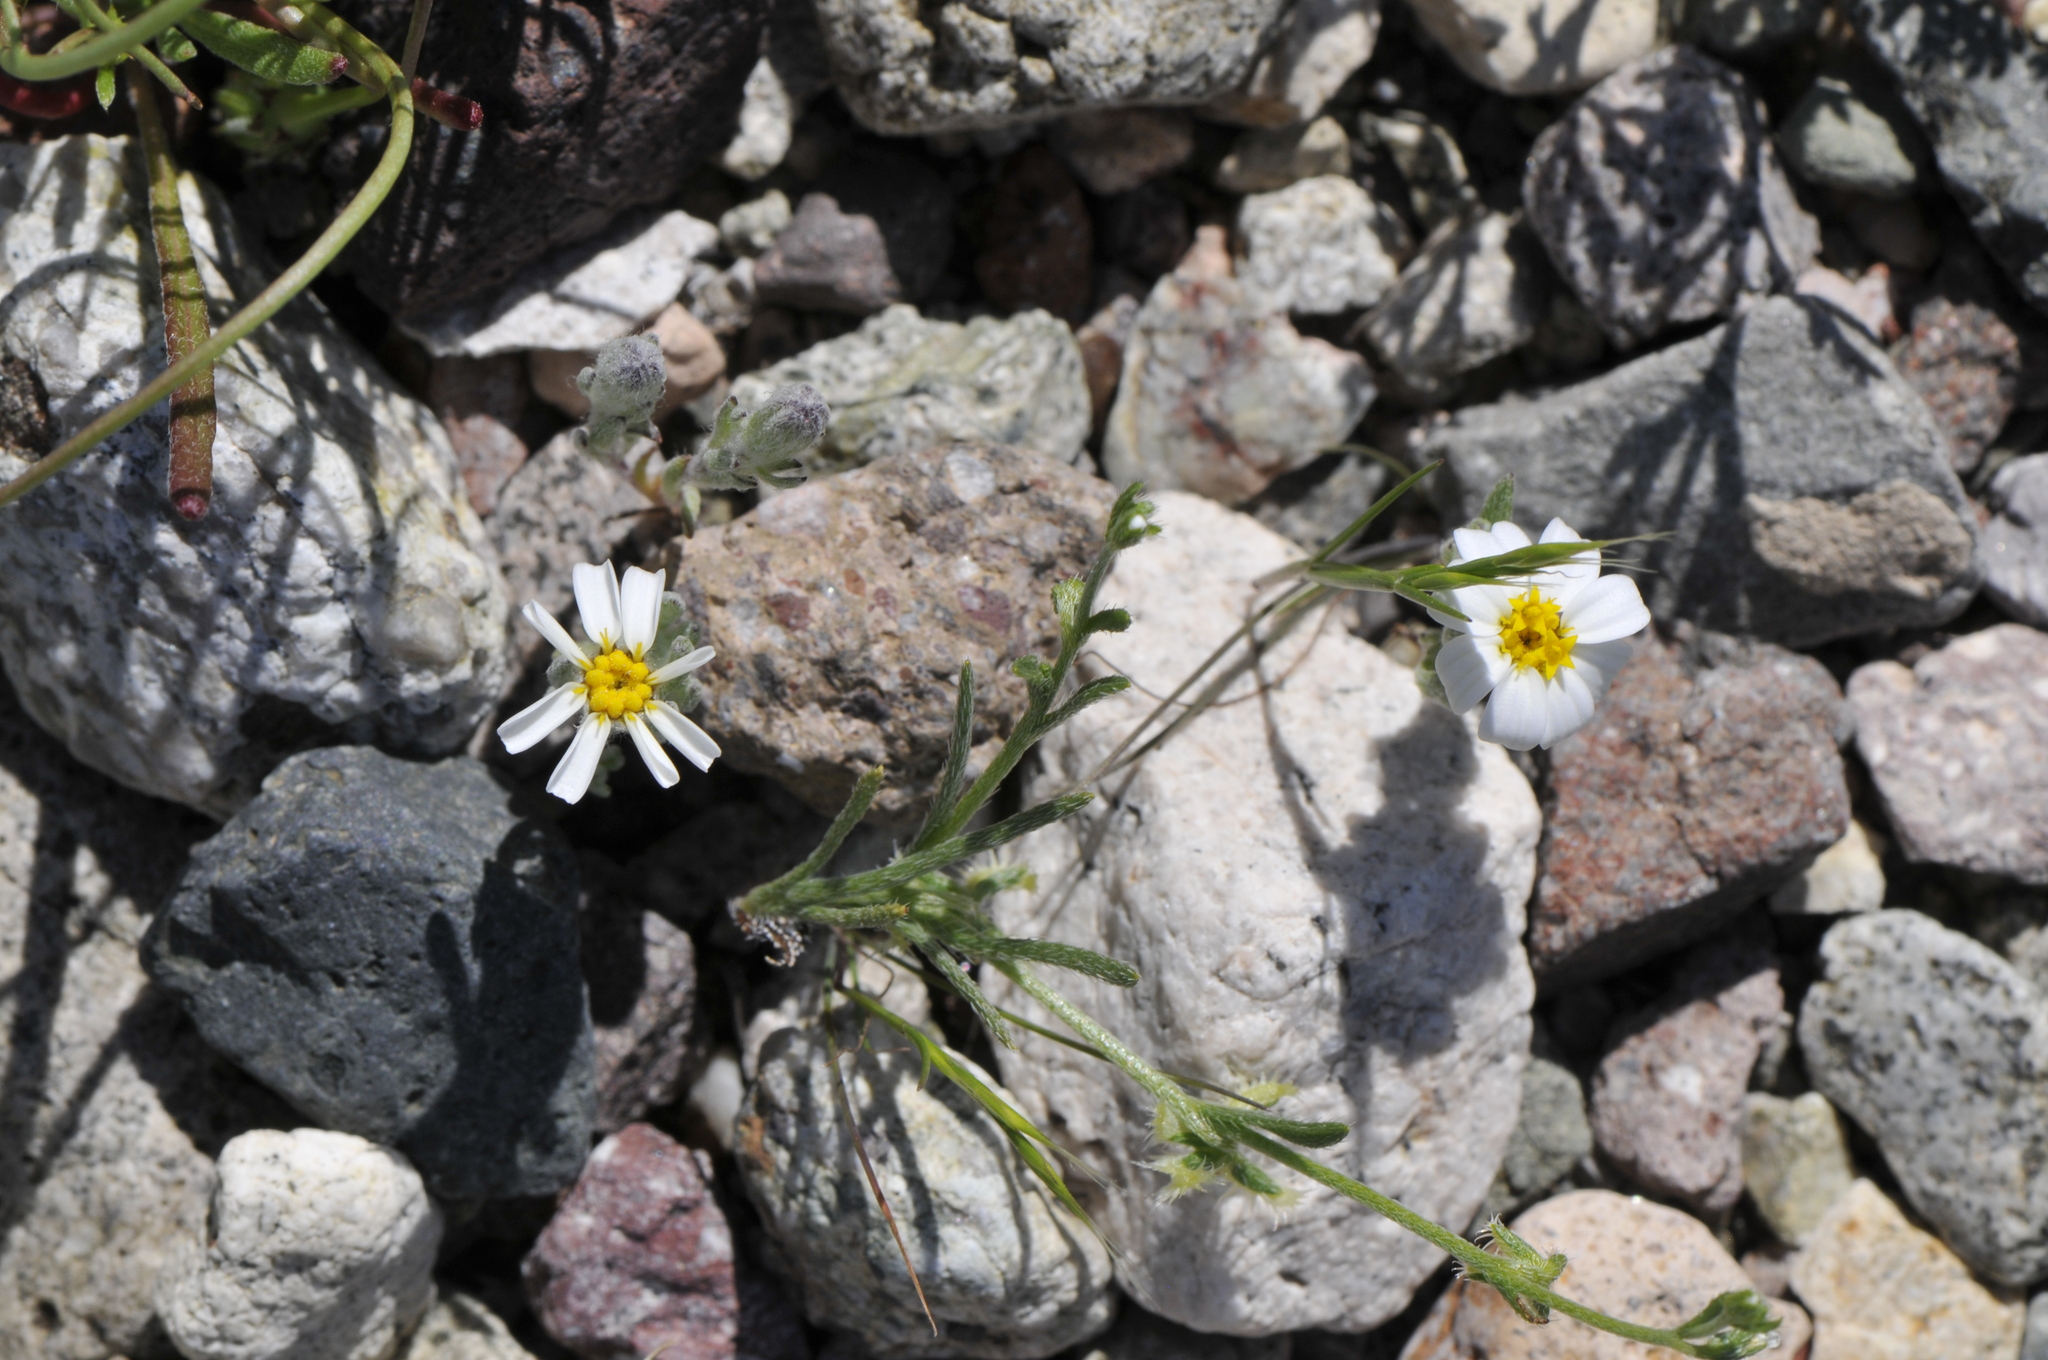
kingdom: Plantae
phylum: Tracheophyta
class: Magnoliopsida
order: Asterales
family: Asteraceae
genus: Eriophyllum
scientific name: Eriophyllum lanosum
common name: White easter-bonnets
